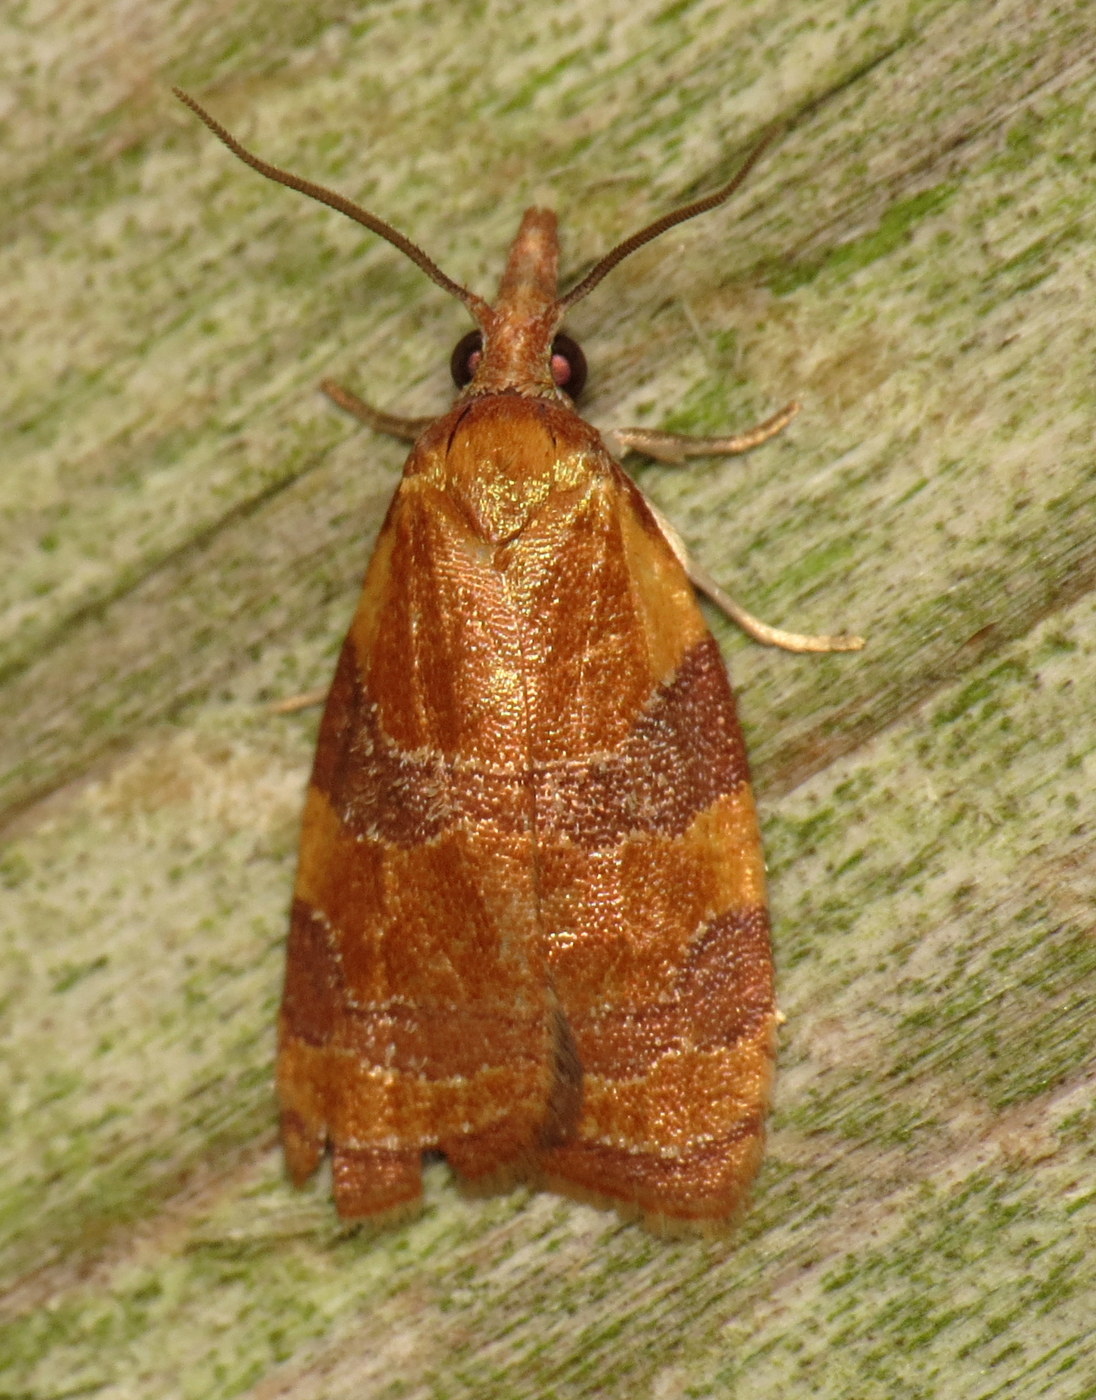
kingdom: Animalia
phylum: Arthropoda
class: Insecta
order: Lepidoptera
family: Tortricidae
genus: Cenopis
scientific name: Cenopis diluticostana
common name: Spring dead-leaf roller moth
